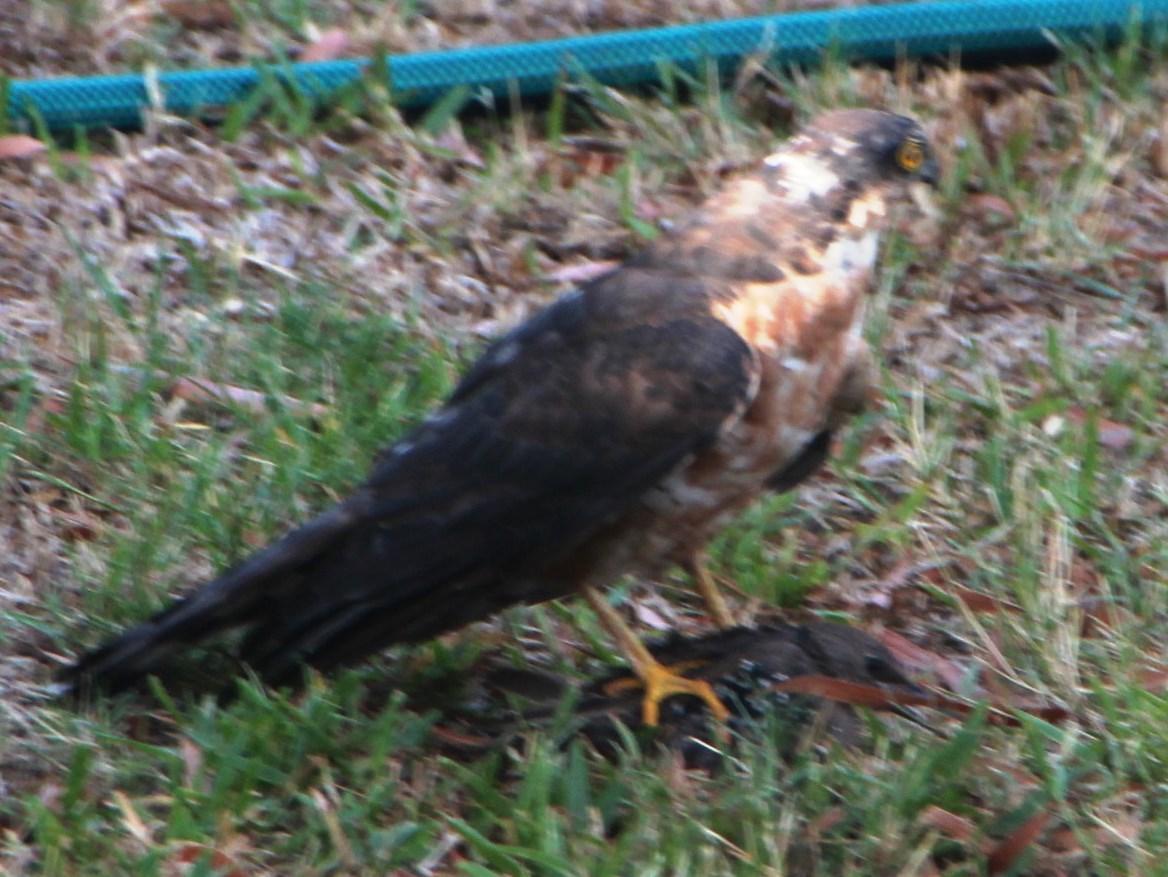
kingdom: Animalia
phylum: Chordata
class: Aves
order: Passeriformes
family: Sturnidae
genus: Sturnus
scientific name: Sturnus vulgaris
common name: Common starling
